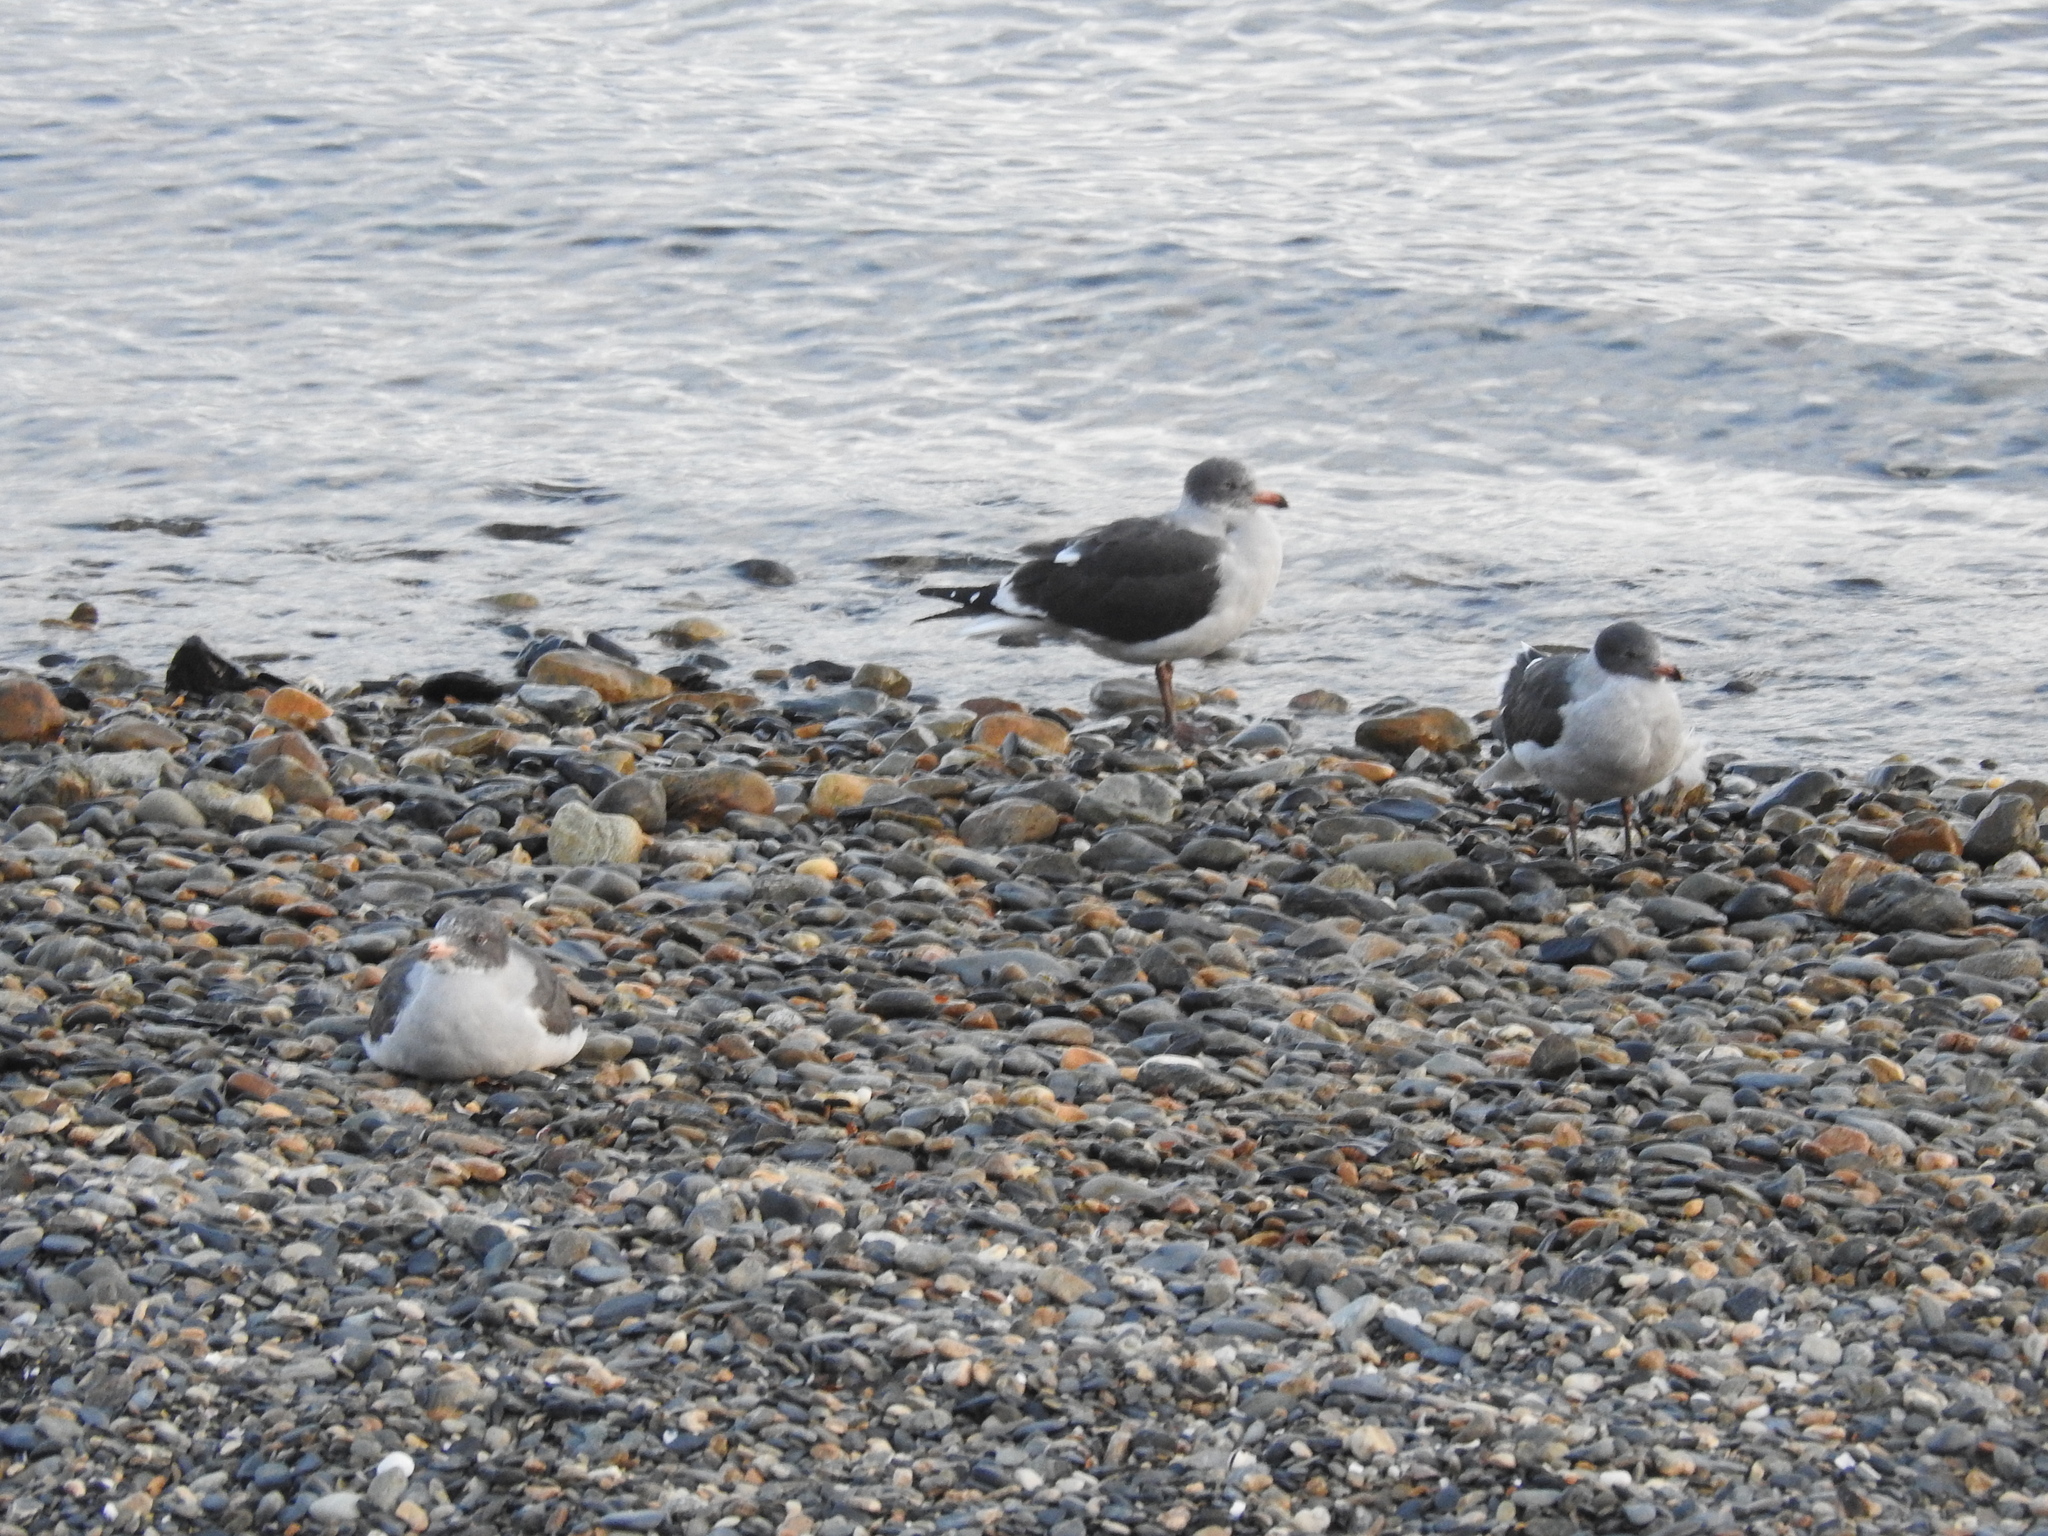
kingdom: Animalia
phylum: Chordata
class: Aves
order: Charadriiformes
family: Laridae
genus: Leucophaeus
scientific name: Leucophaeus scoresbii
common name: Dolphin gull
